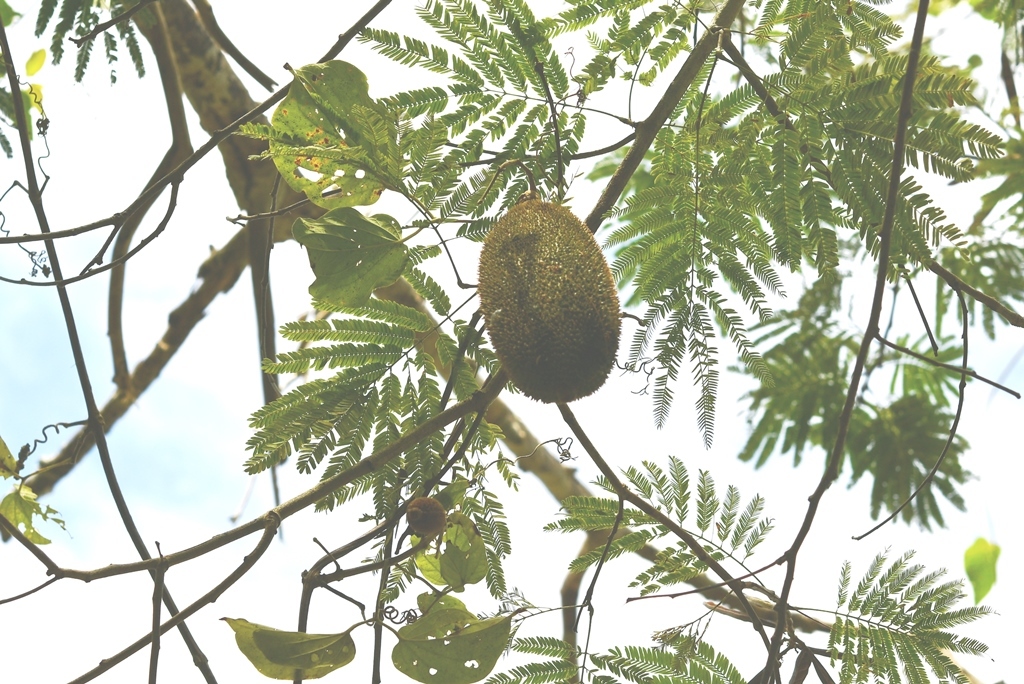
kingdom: Plantae
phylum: Tracheophyta
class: Magnoliopsida
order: Lamiales
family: Bignoniaceae
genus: Amphilophium
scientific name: Amphilophium crucigerum
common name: Monkey comb
